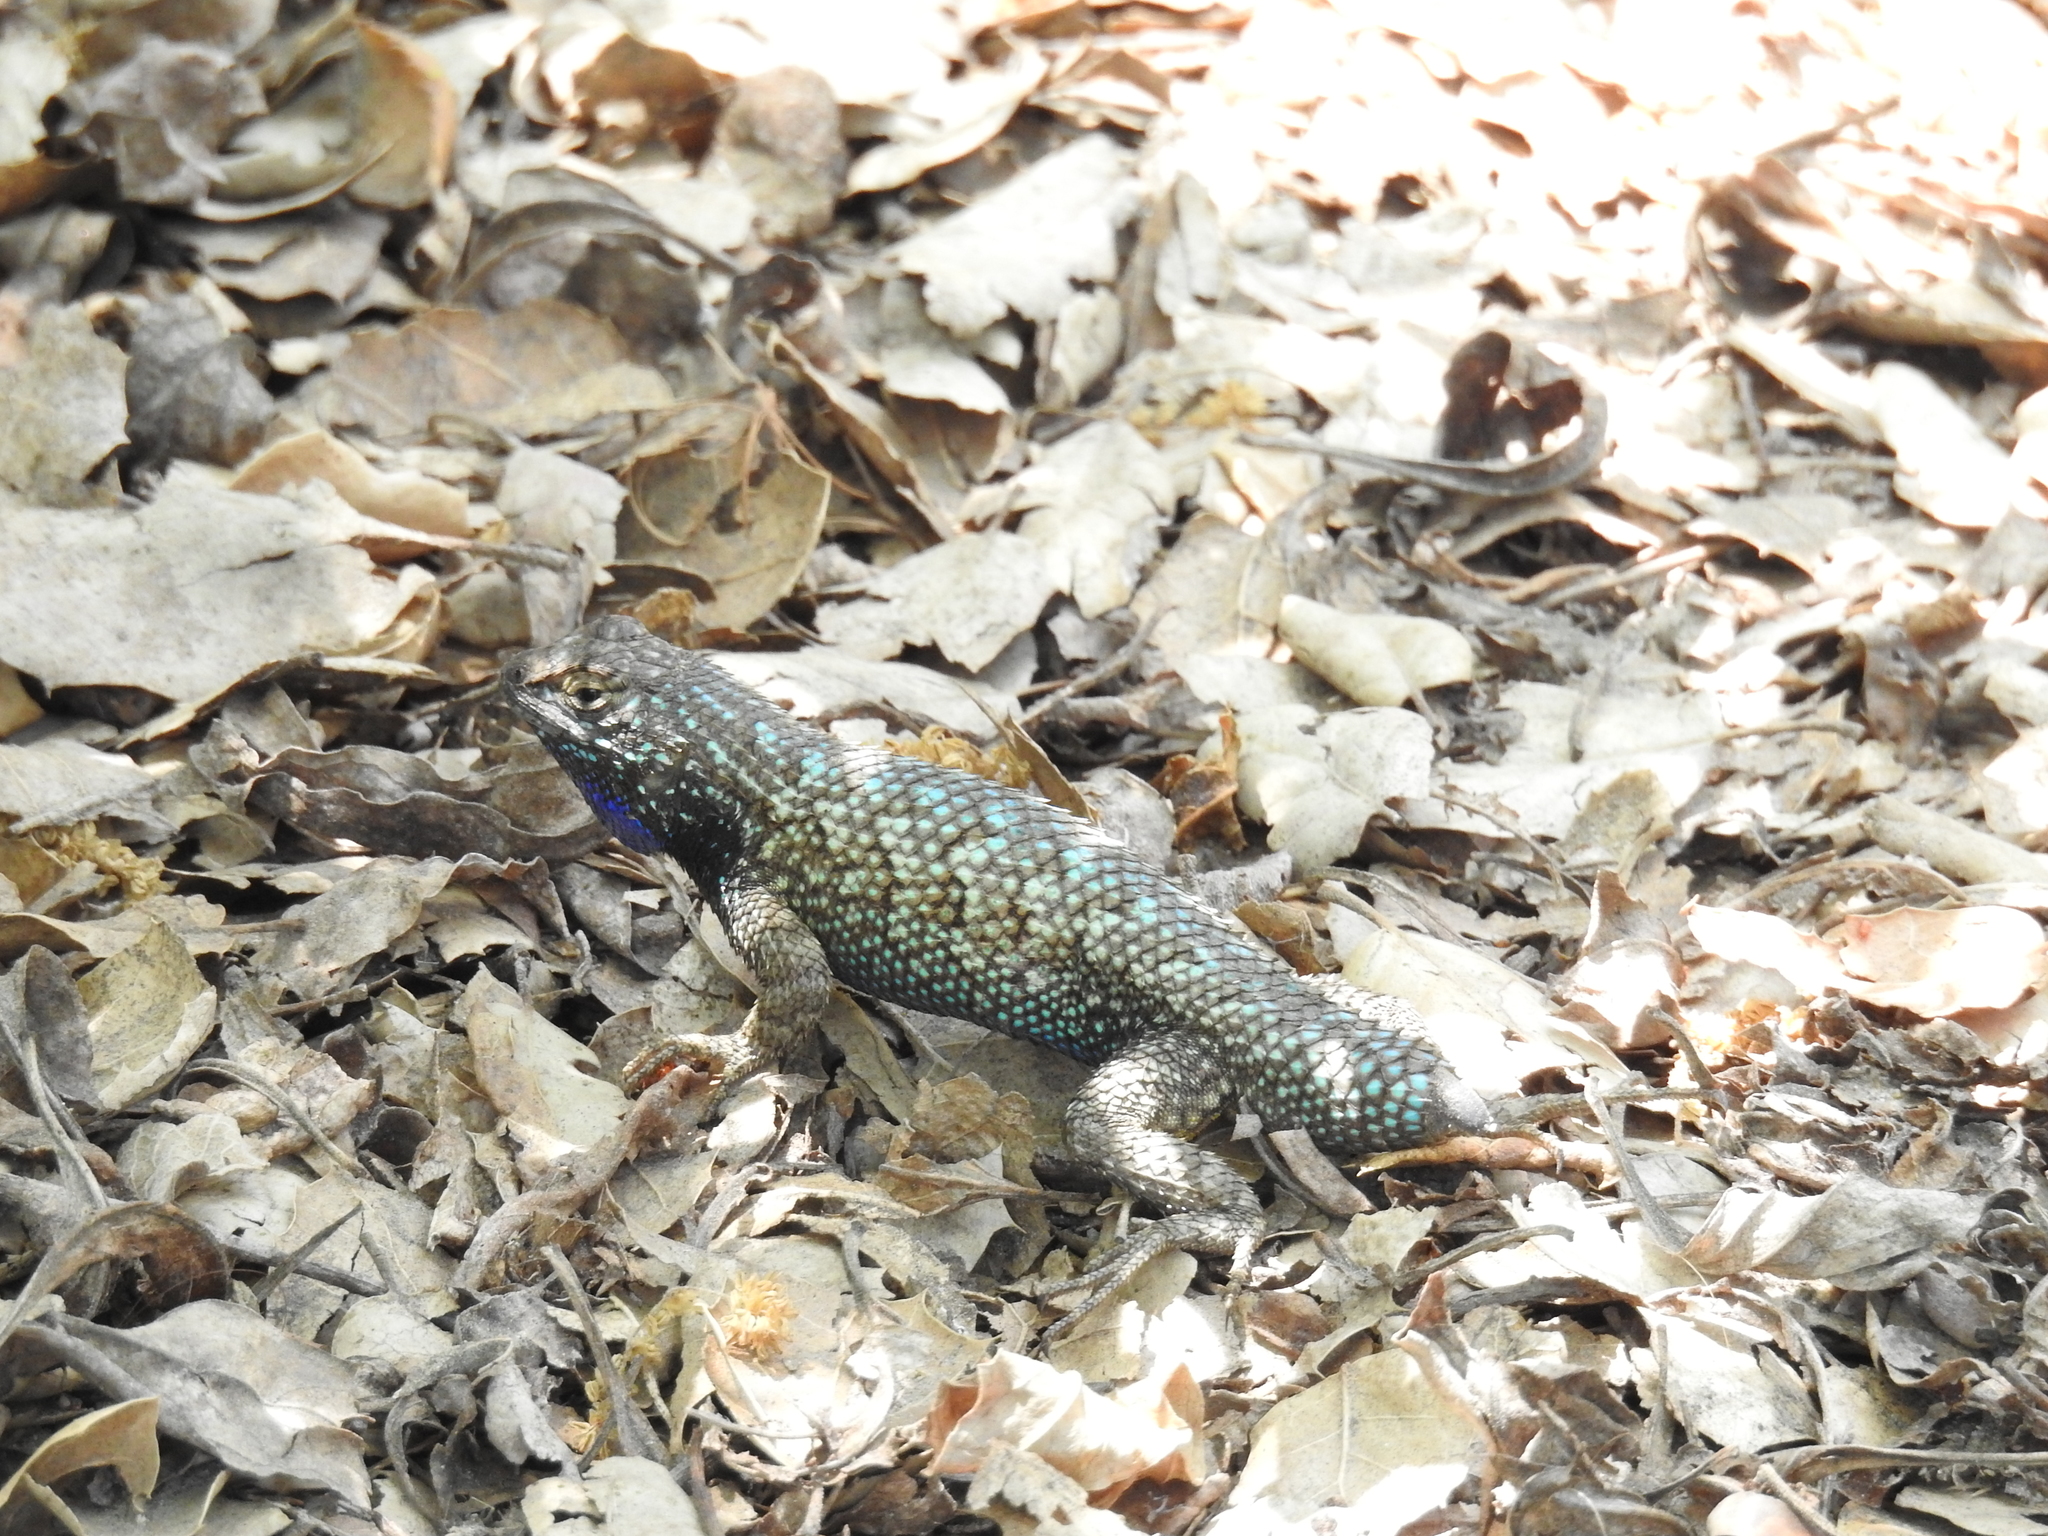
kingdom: Animalia
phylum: Chordata
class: Squamata
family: Phrynosomatidae
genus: Sceloporus
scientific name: Sceloporus occidentalis
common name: Western fence lizard
